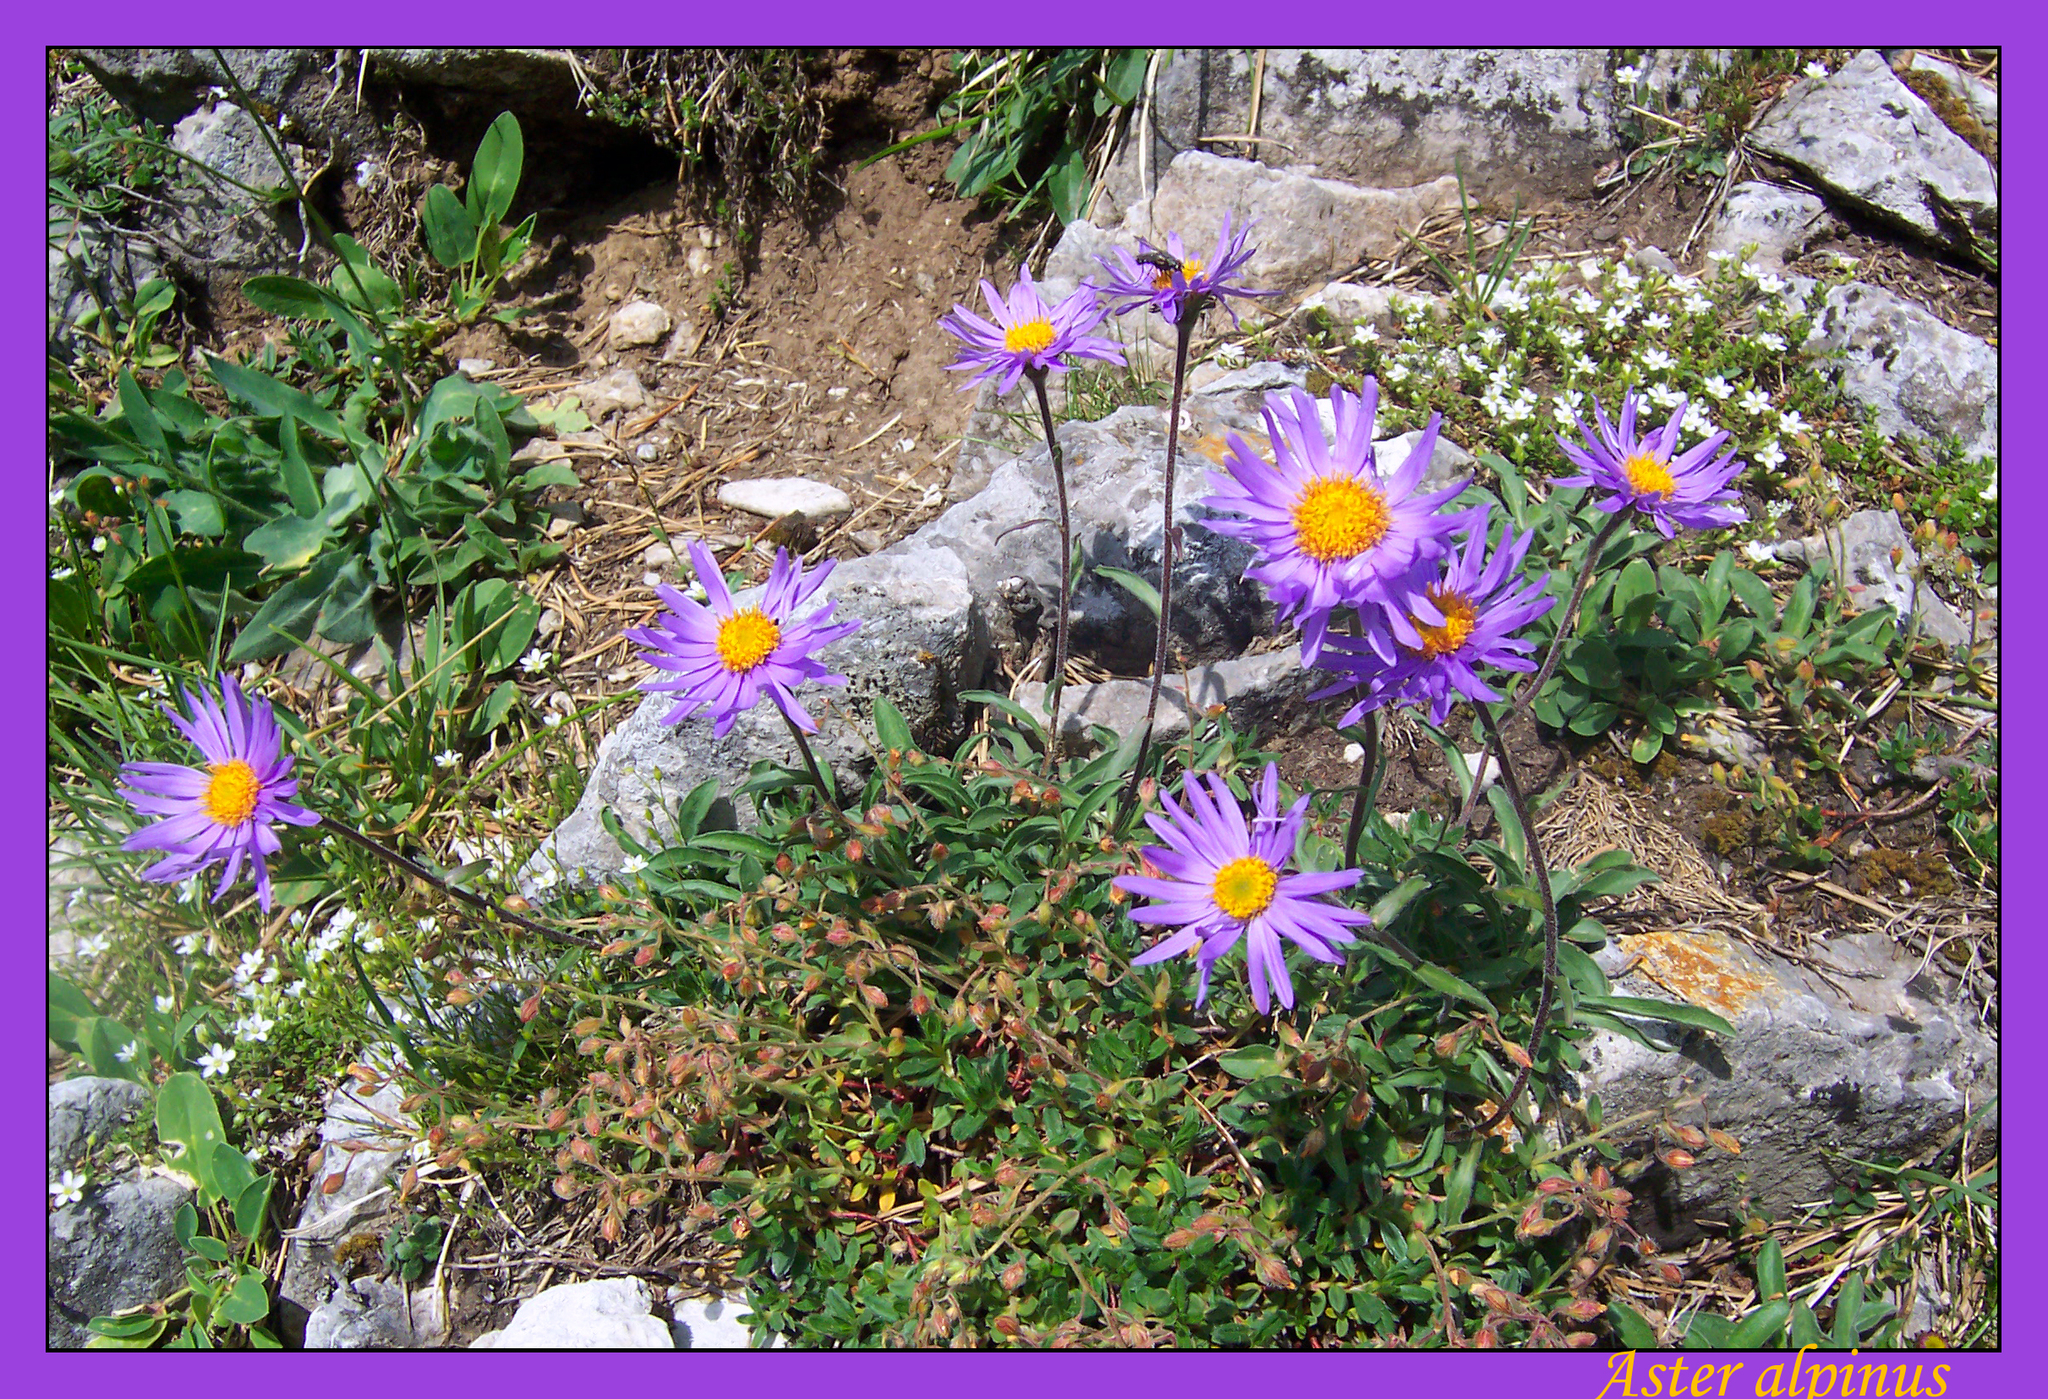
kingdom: Plantae
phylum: Tracheophyta
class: Magnoliopsida
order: Asterales
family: Asteraceae
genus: Aster
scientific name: Aster alpinus
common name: Alpine aster
